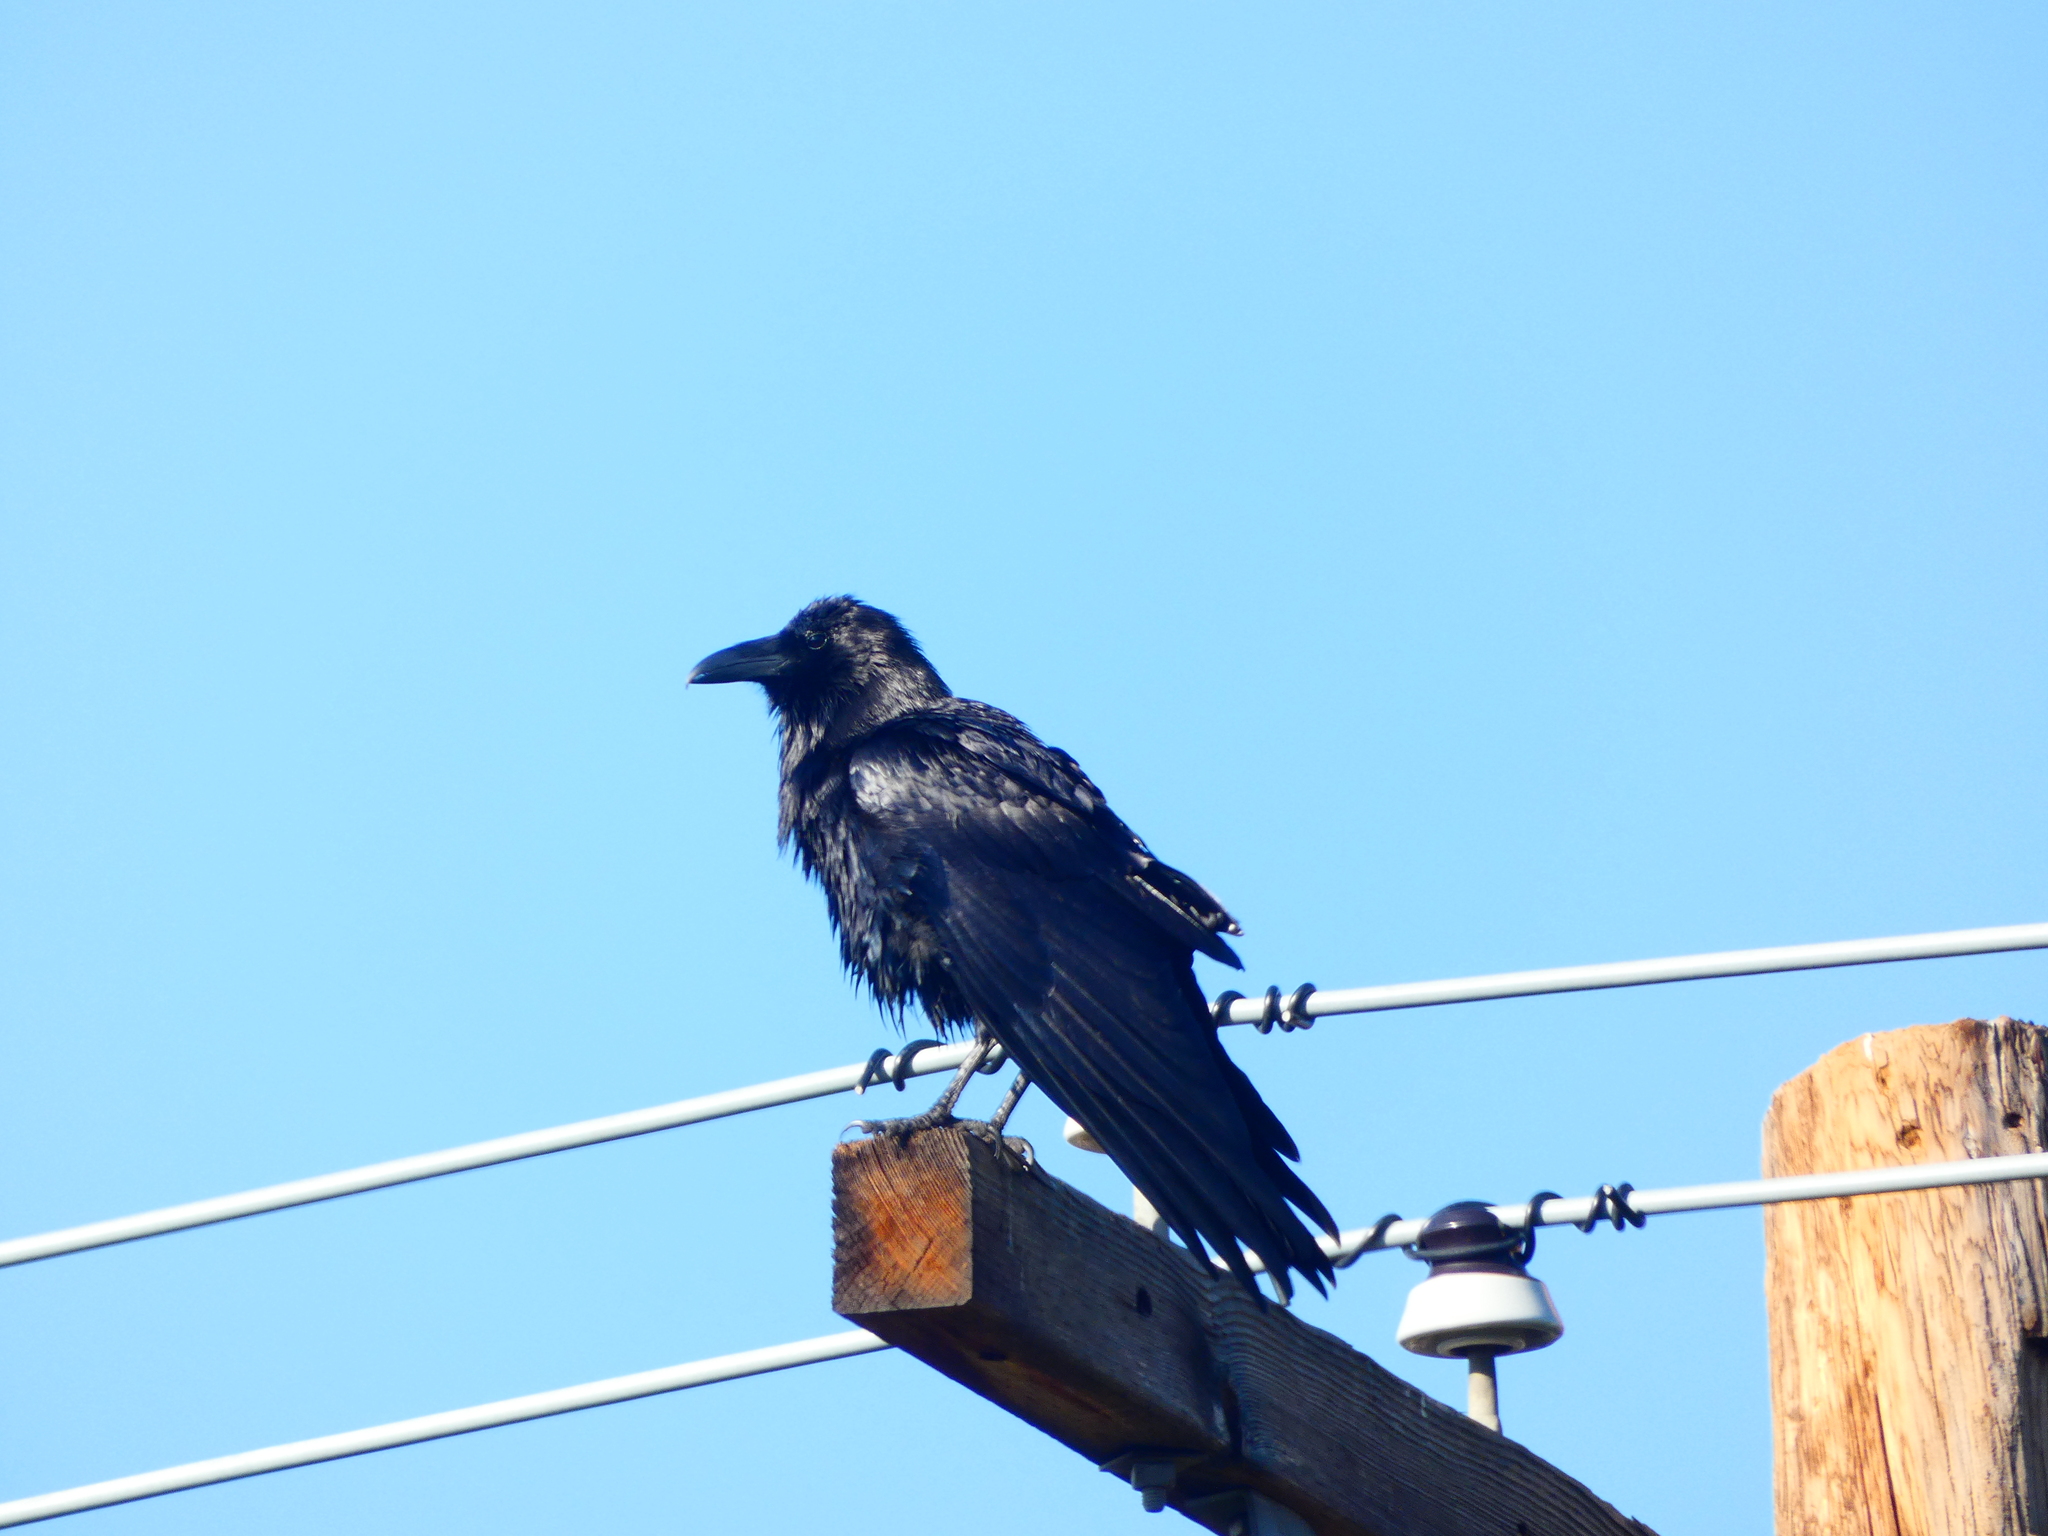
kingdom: Animalia
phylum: Chordata
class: Aves
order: Passeriformes
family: Corvidae
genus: Corvus
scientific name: Corvus corax
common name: Common raven
